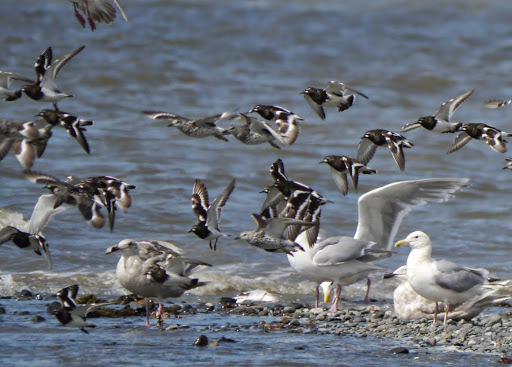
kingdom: Animalia
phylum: Chordata
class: Aves
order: Charadriiformes
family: Scolopacidae
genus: Arenaria
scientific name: Arenaria melanocephala
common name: Black turnstone
